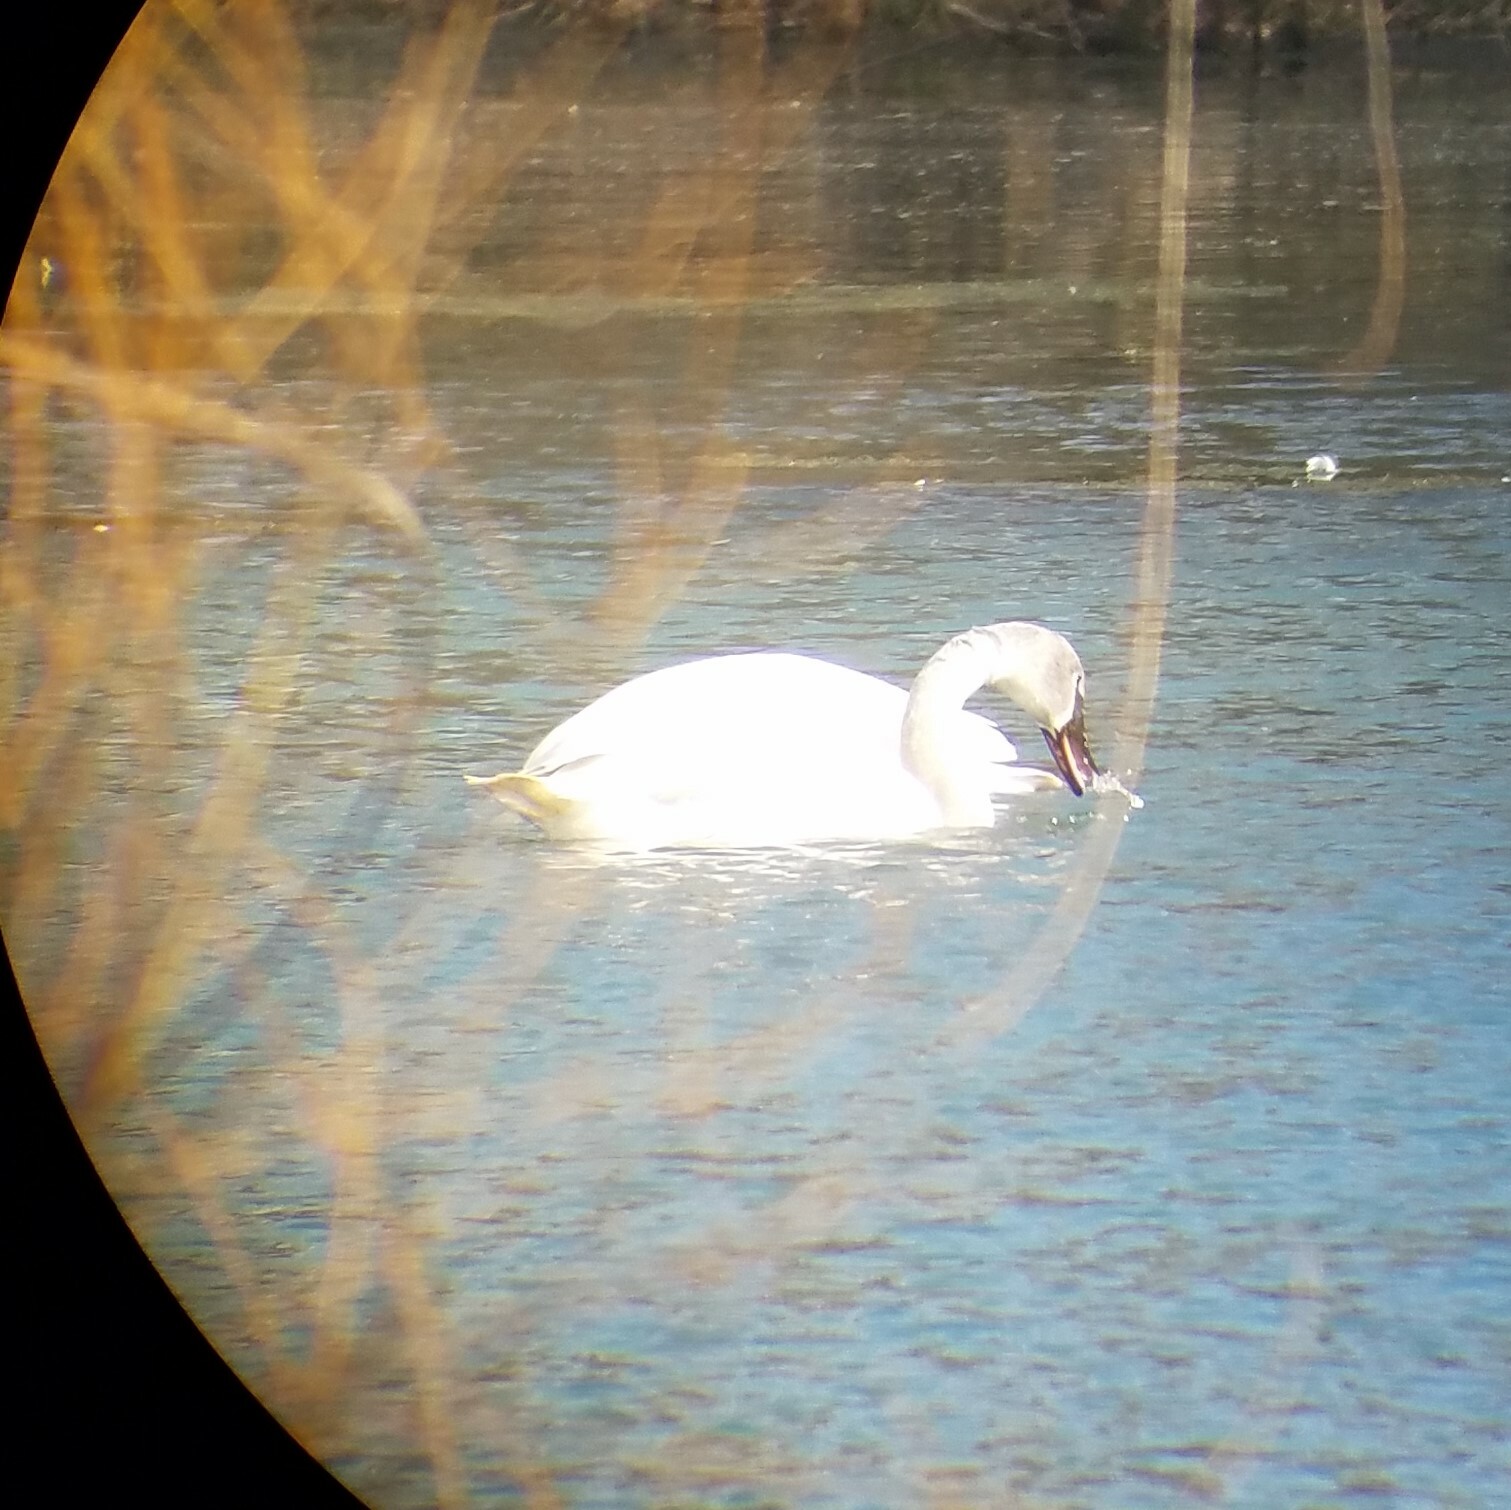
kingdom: Animalia
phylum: Chordata
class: Aves
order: Anseriformes
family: Anatidae
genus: Cygnus
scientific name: Cygnus buccinator
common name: Trumpeter swan
